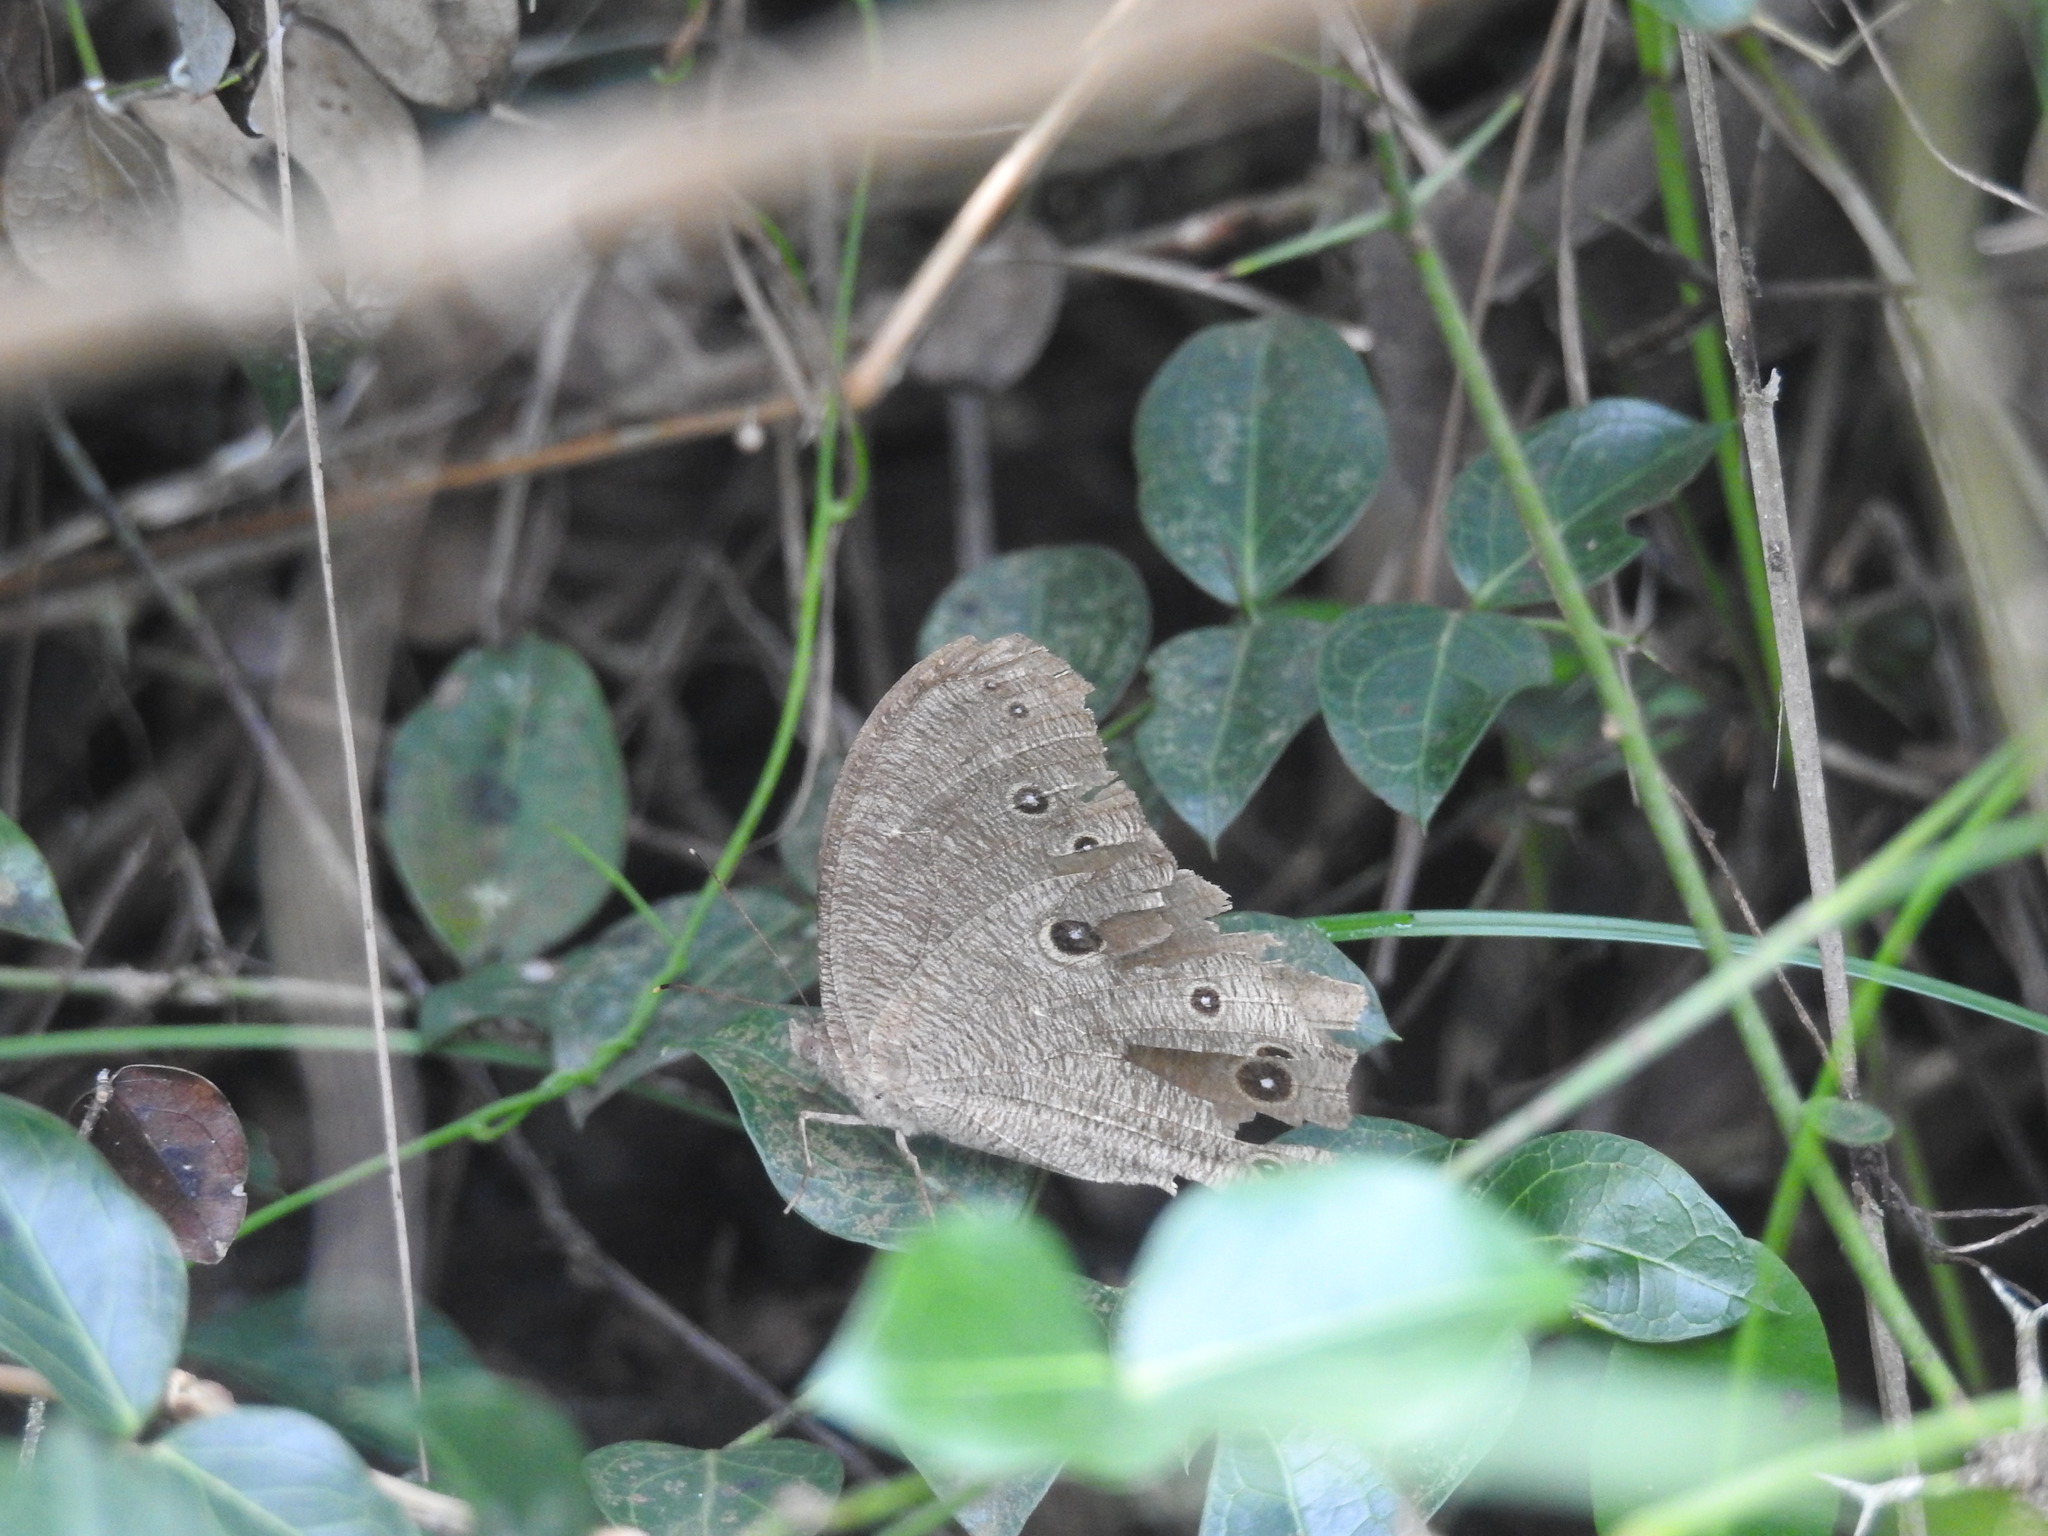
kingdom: Animalia
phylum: Arthropoda
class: Insecta
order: Lepidoptera
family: Nymphalidae
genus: Melanitis
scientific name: Melanitis leda
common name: Twilight brown
